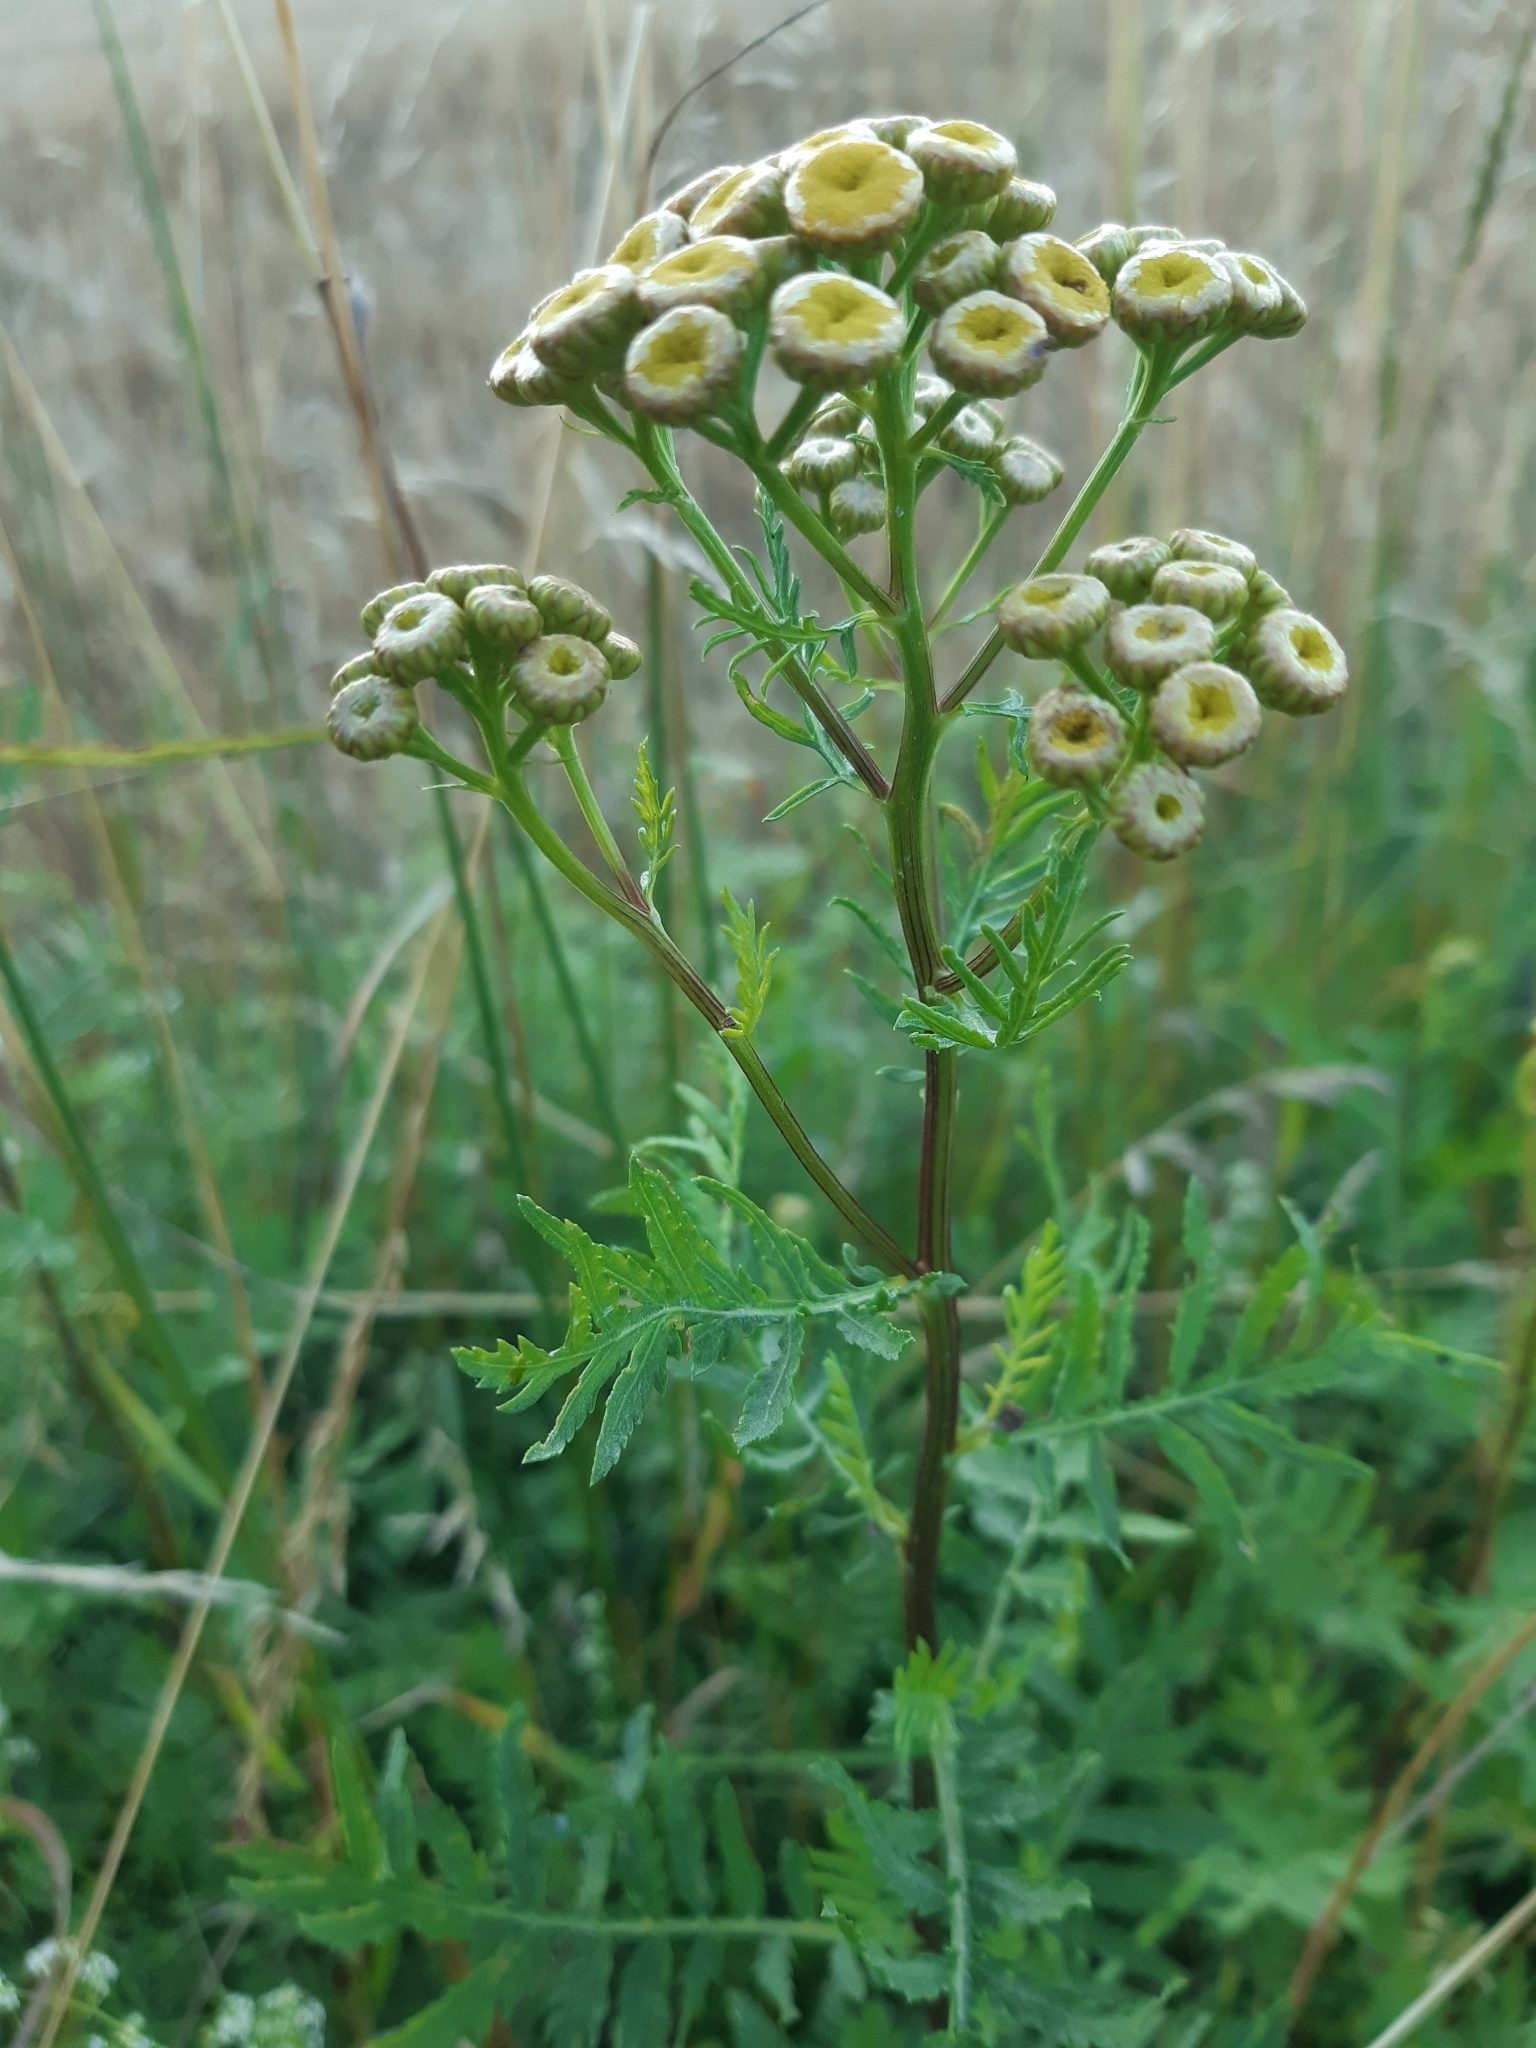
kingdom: Plantae
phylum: Tracheophyta
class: Magnoliopsida
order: Asterales
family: Asteraceae
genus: Tanacetum
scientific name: Tanacetum vulgare
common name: Common tansy
